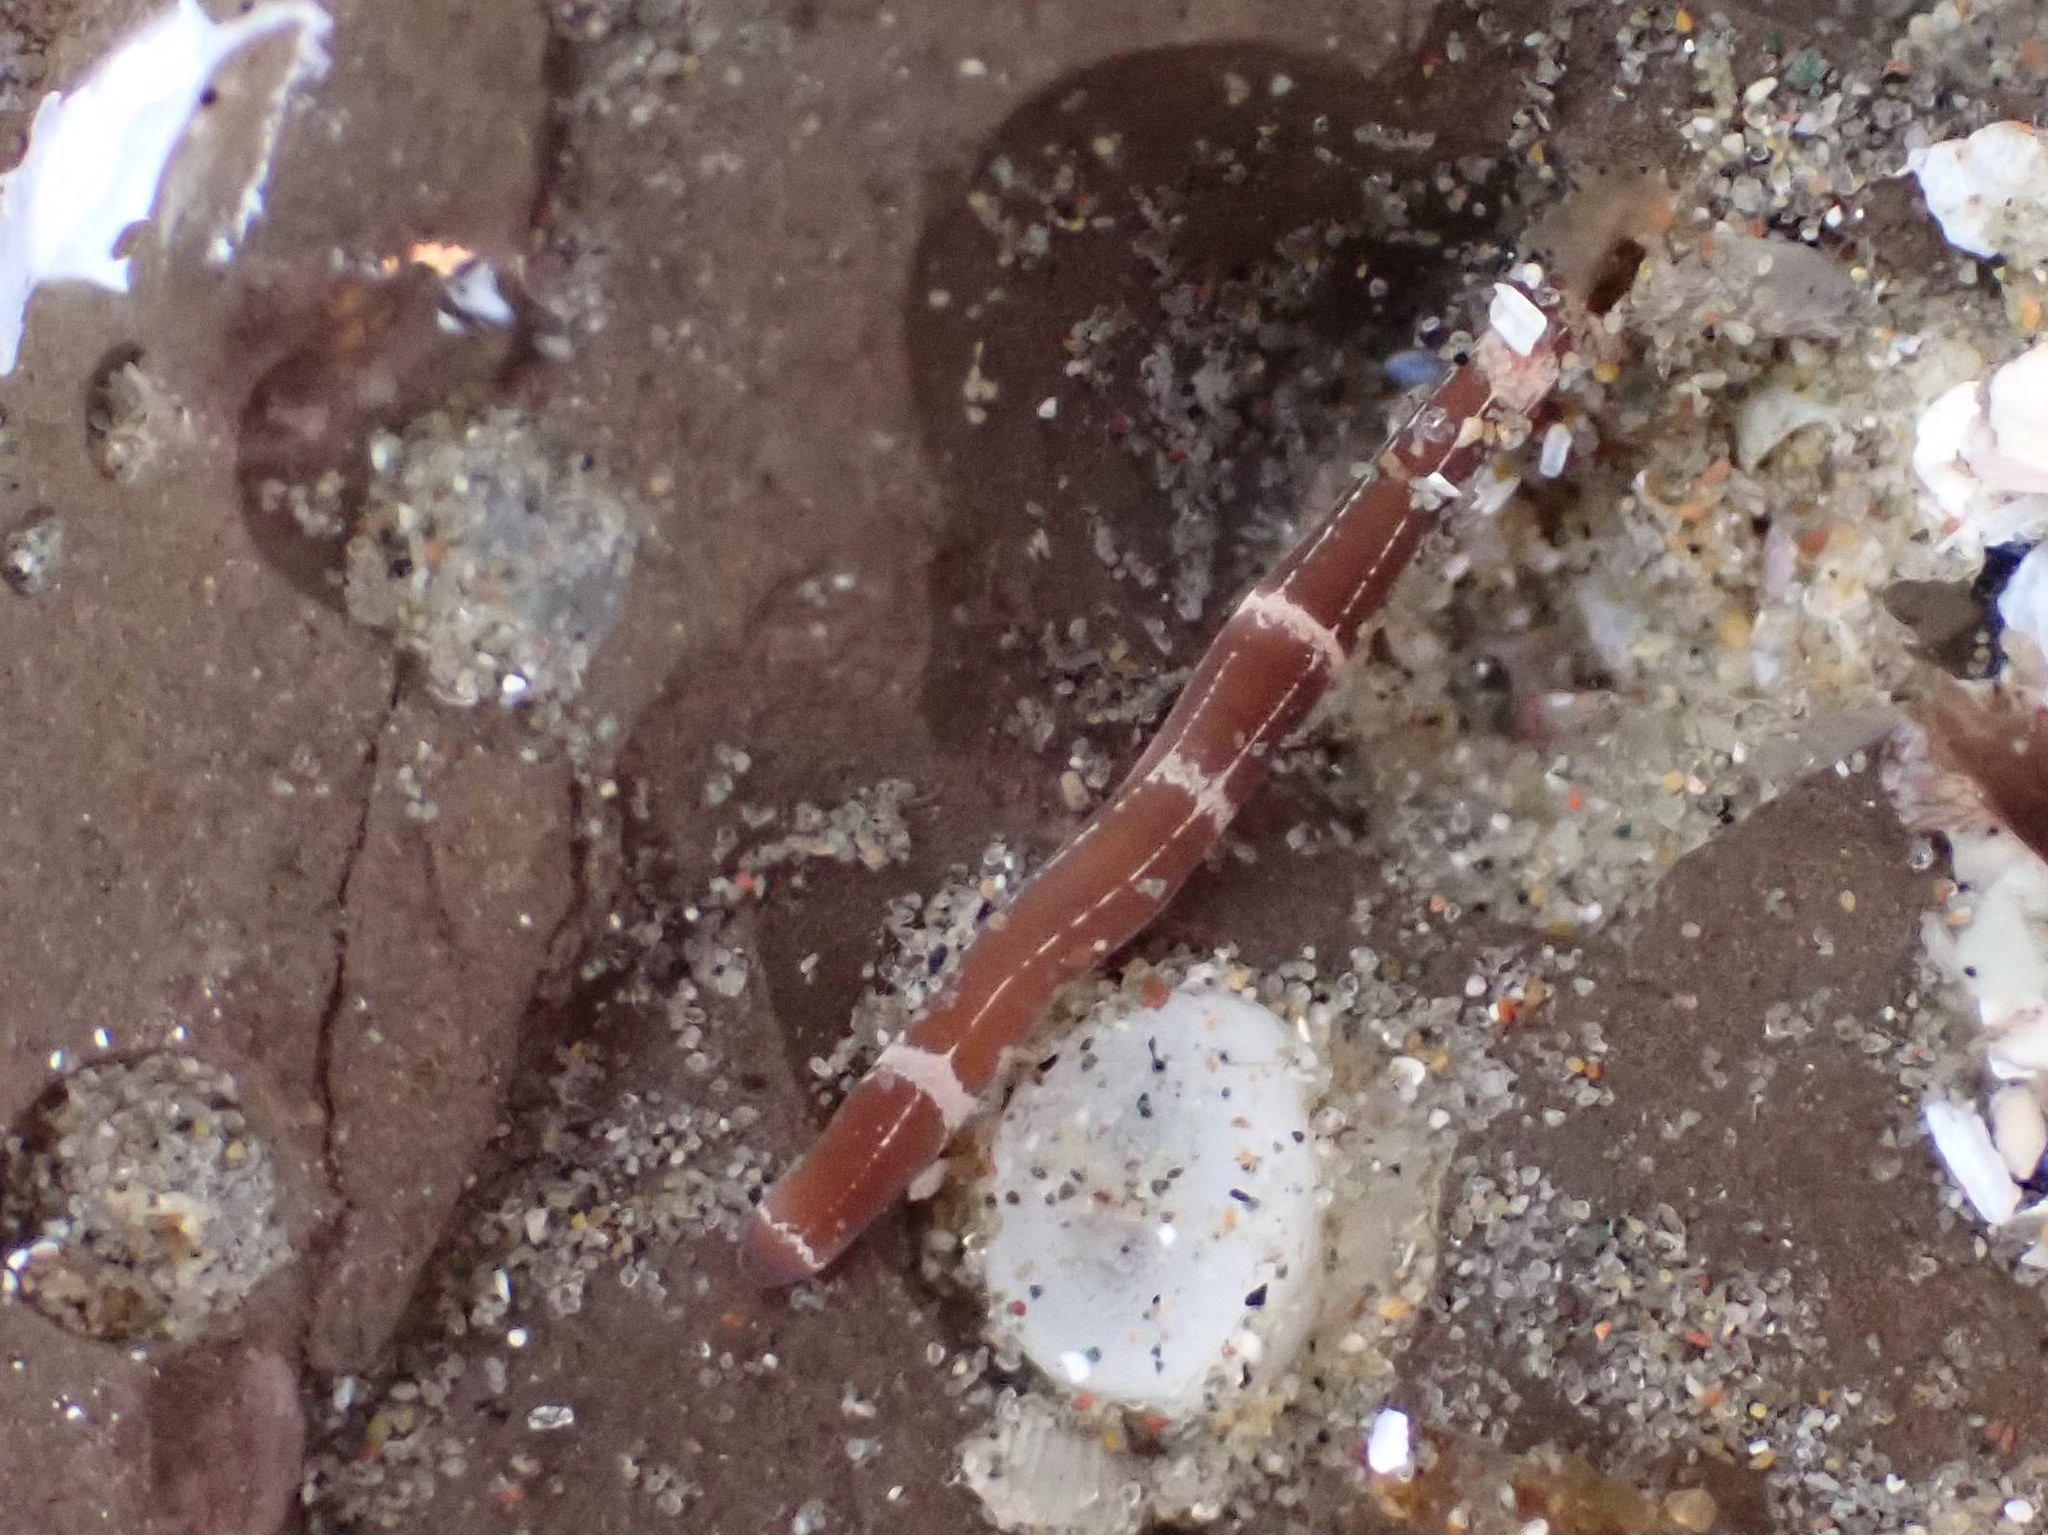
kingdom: Animalia
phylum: Nemertea
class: Palaeonemertea
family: Tubulanidae
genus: Tubulanus
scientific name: Tubulanus sexlineatus
